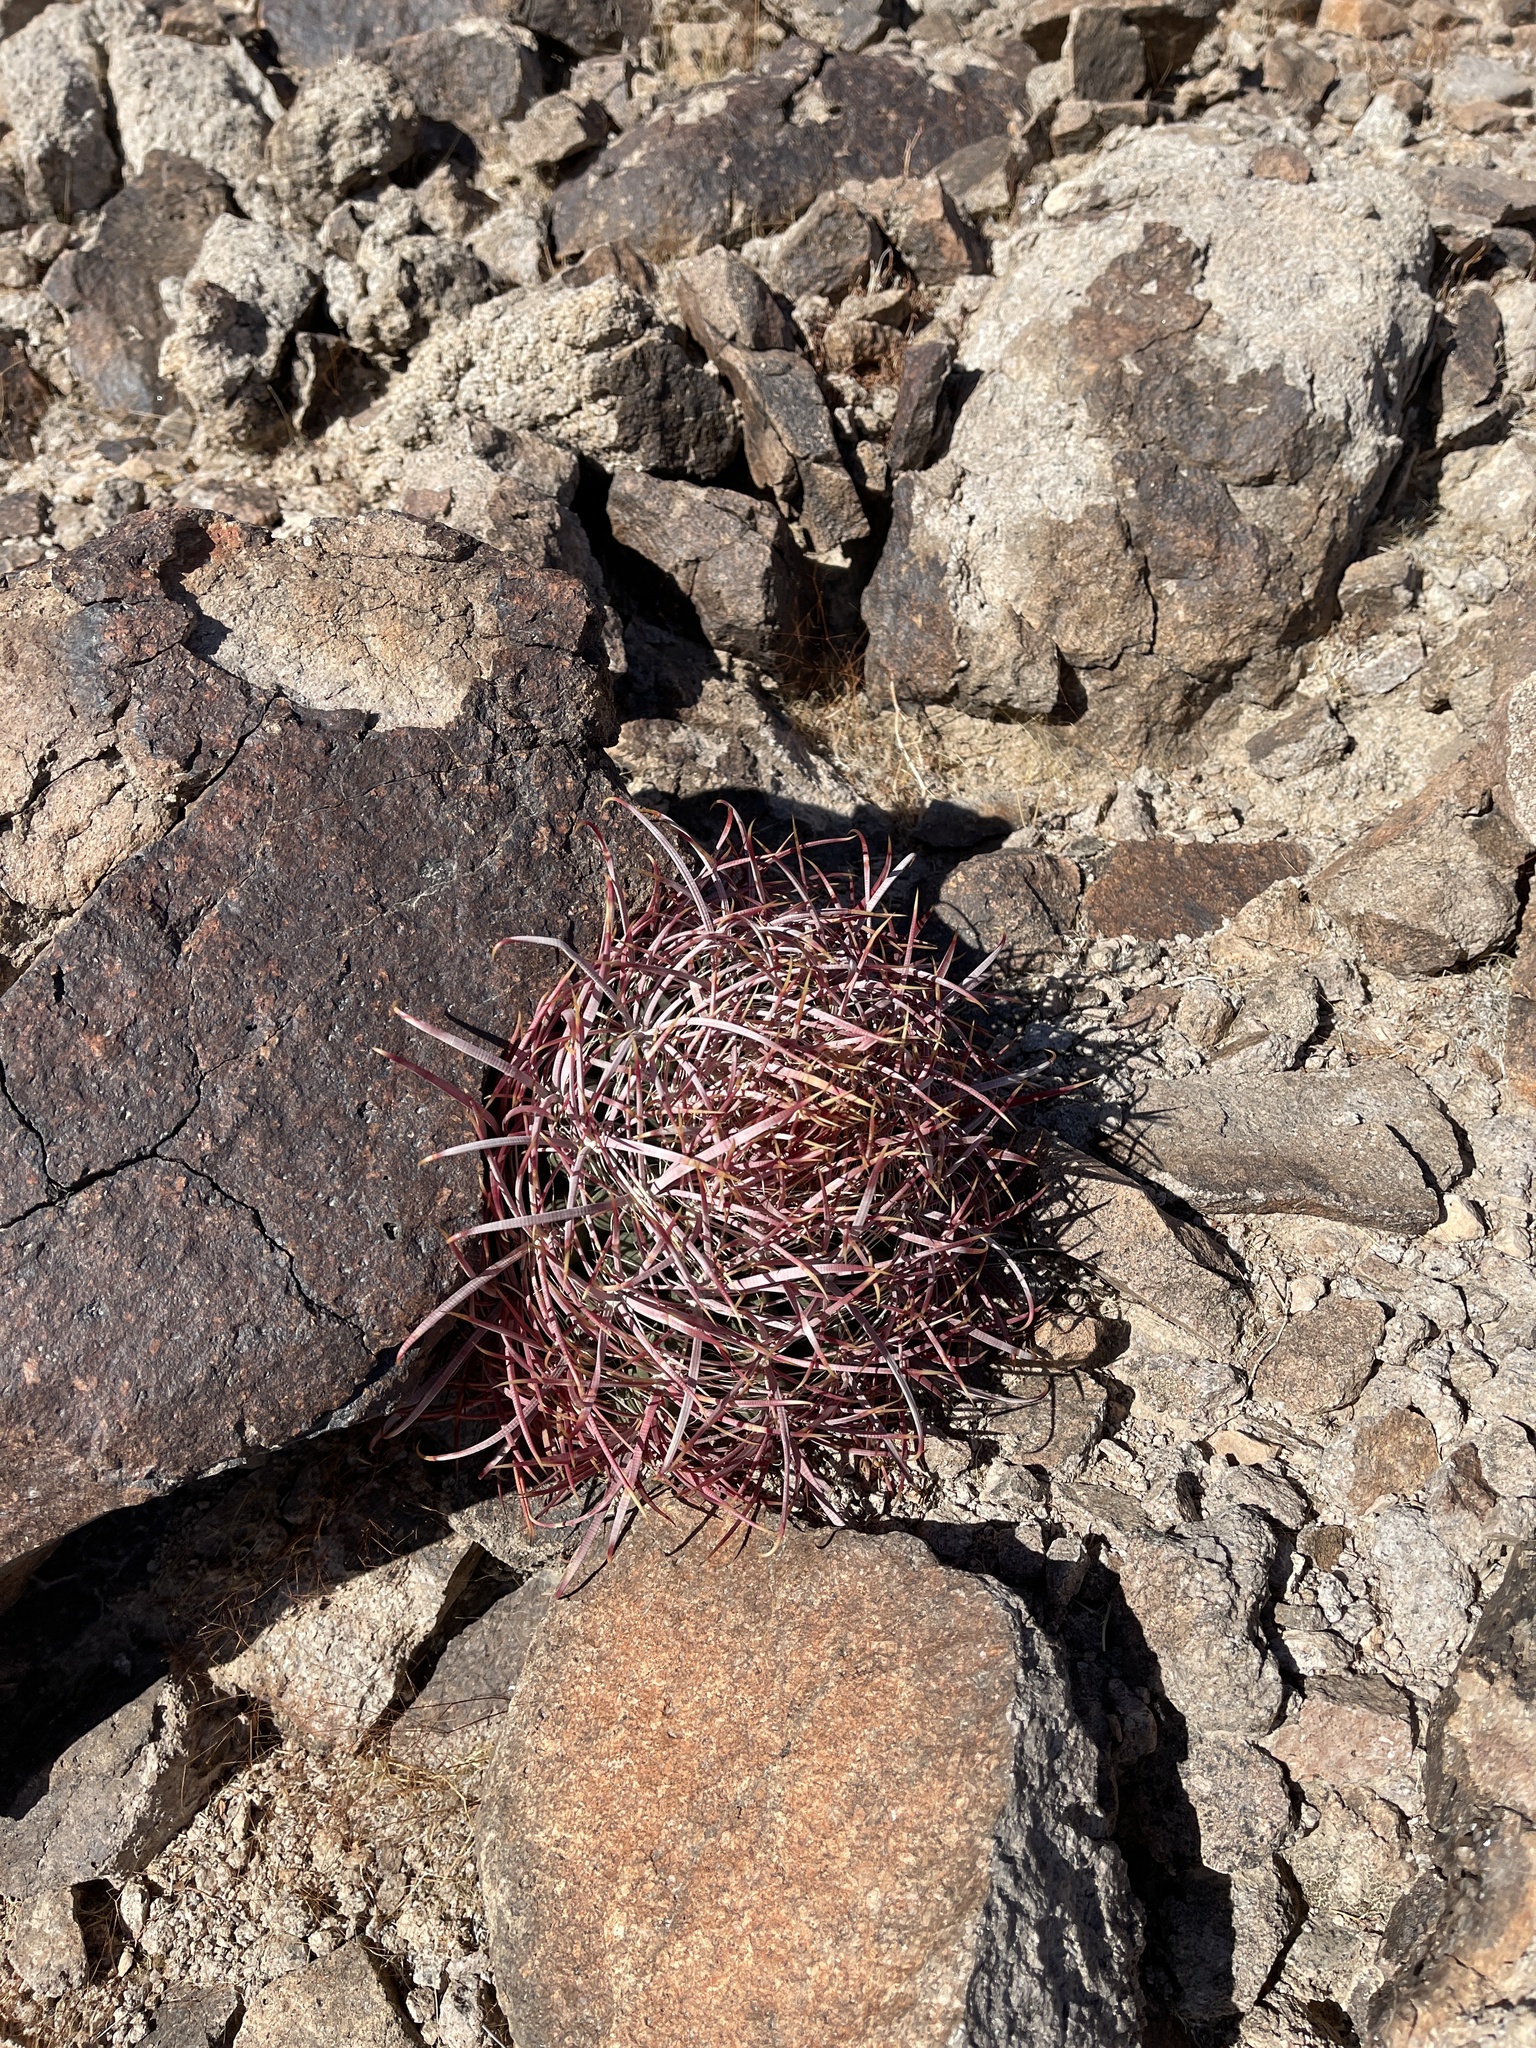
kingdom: Plantae
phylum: Tracheophyta
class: Magnoliopsida
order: Caryophyllales
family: Cactaceae
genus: Ferocactus
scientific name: Ferocactus cylindraceus
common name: California barrel cactus
